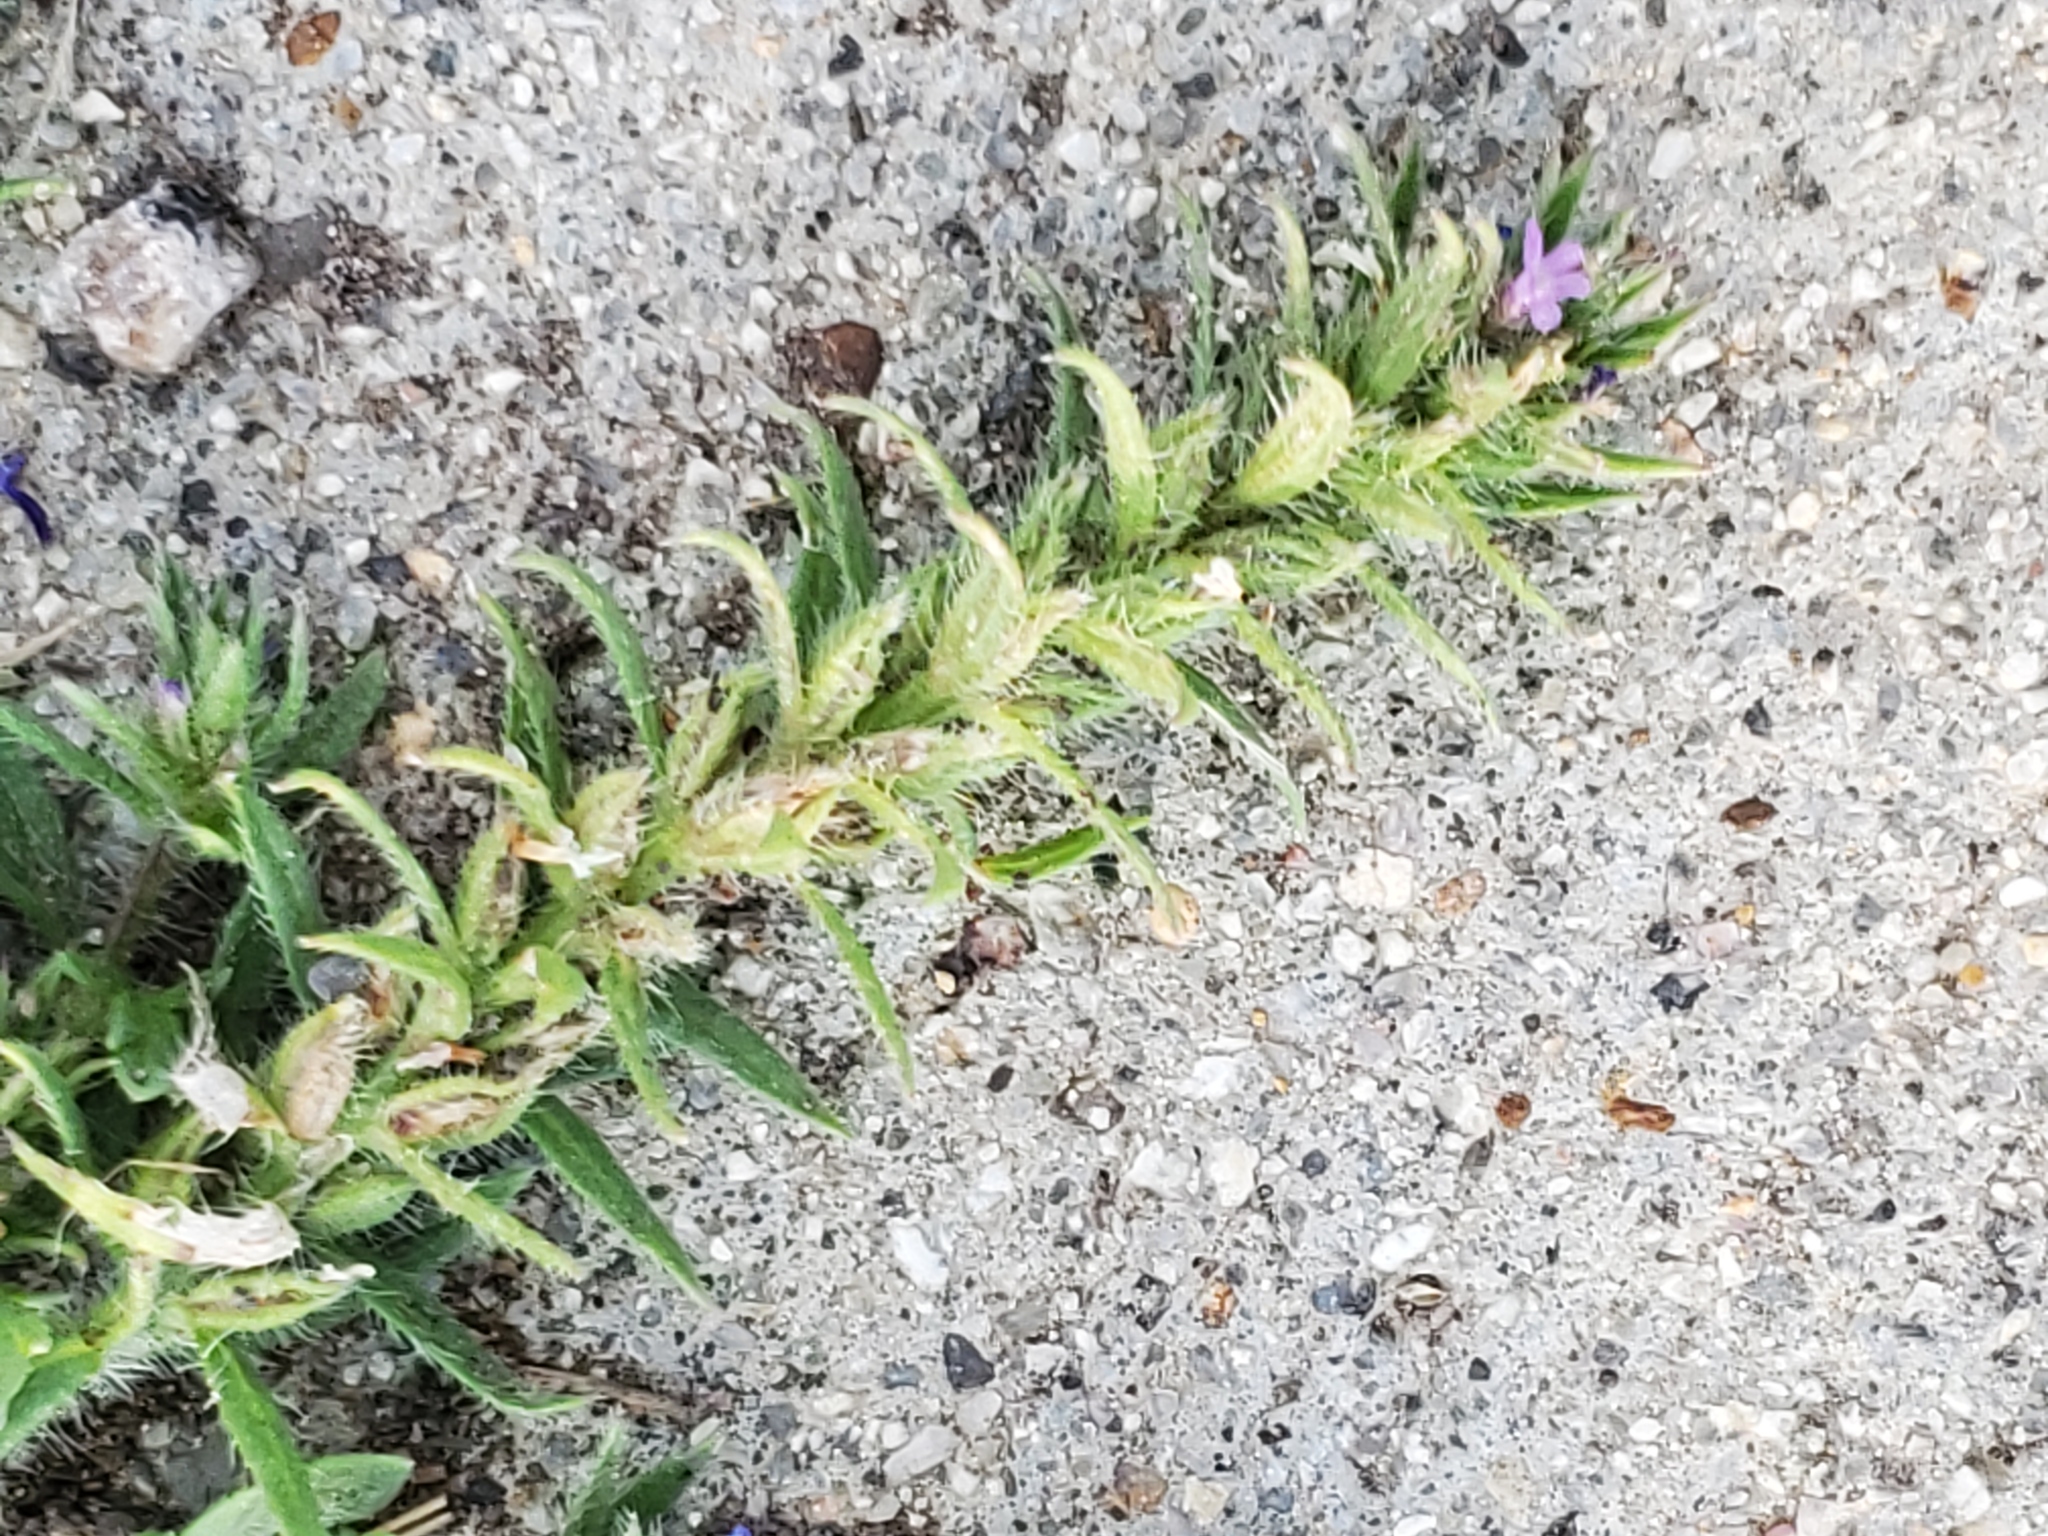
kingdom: Plantae
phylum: Tracheophyta
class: Magnoliopsida
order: Lamiales
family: Verbenaceae
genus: Verbena
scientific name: Verbena bracteata
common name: Bracted vervain
